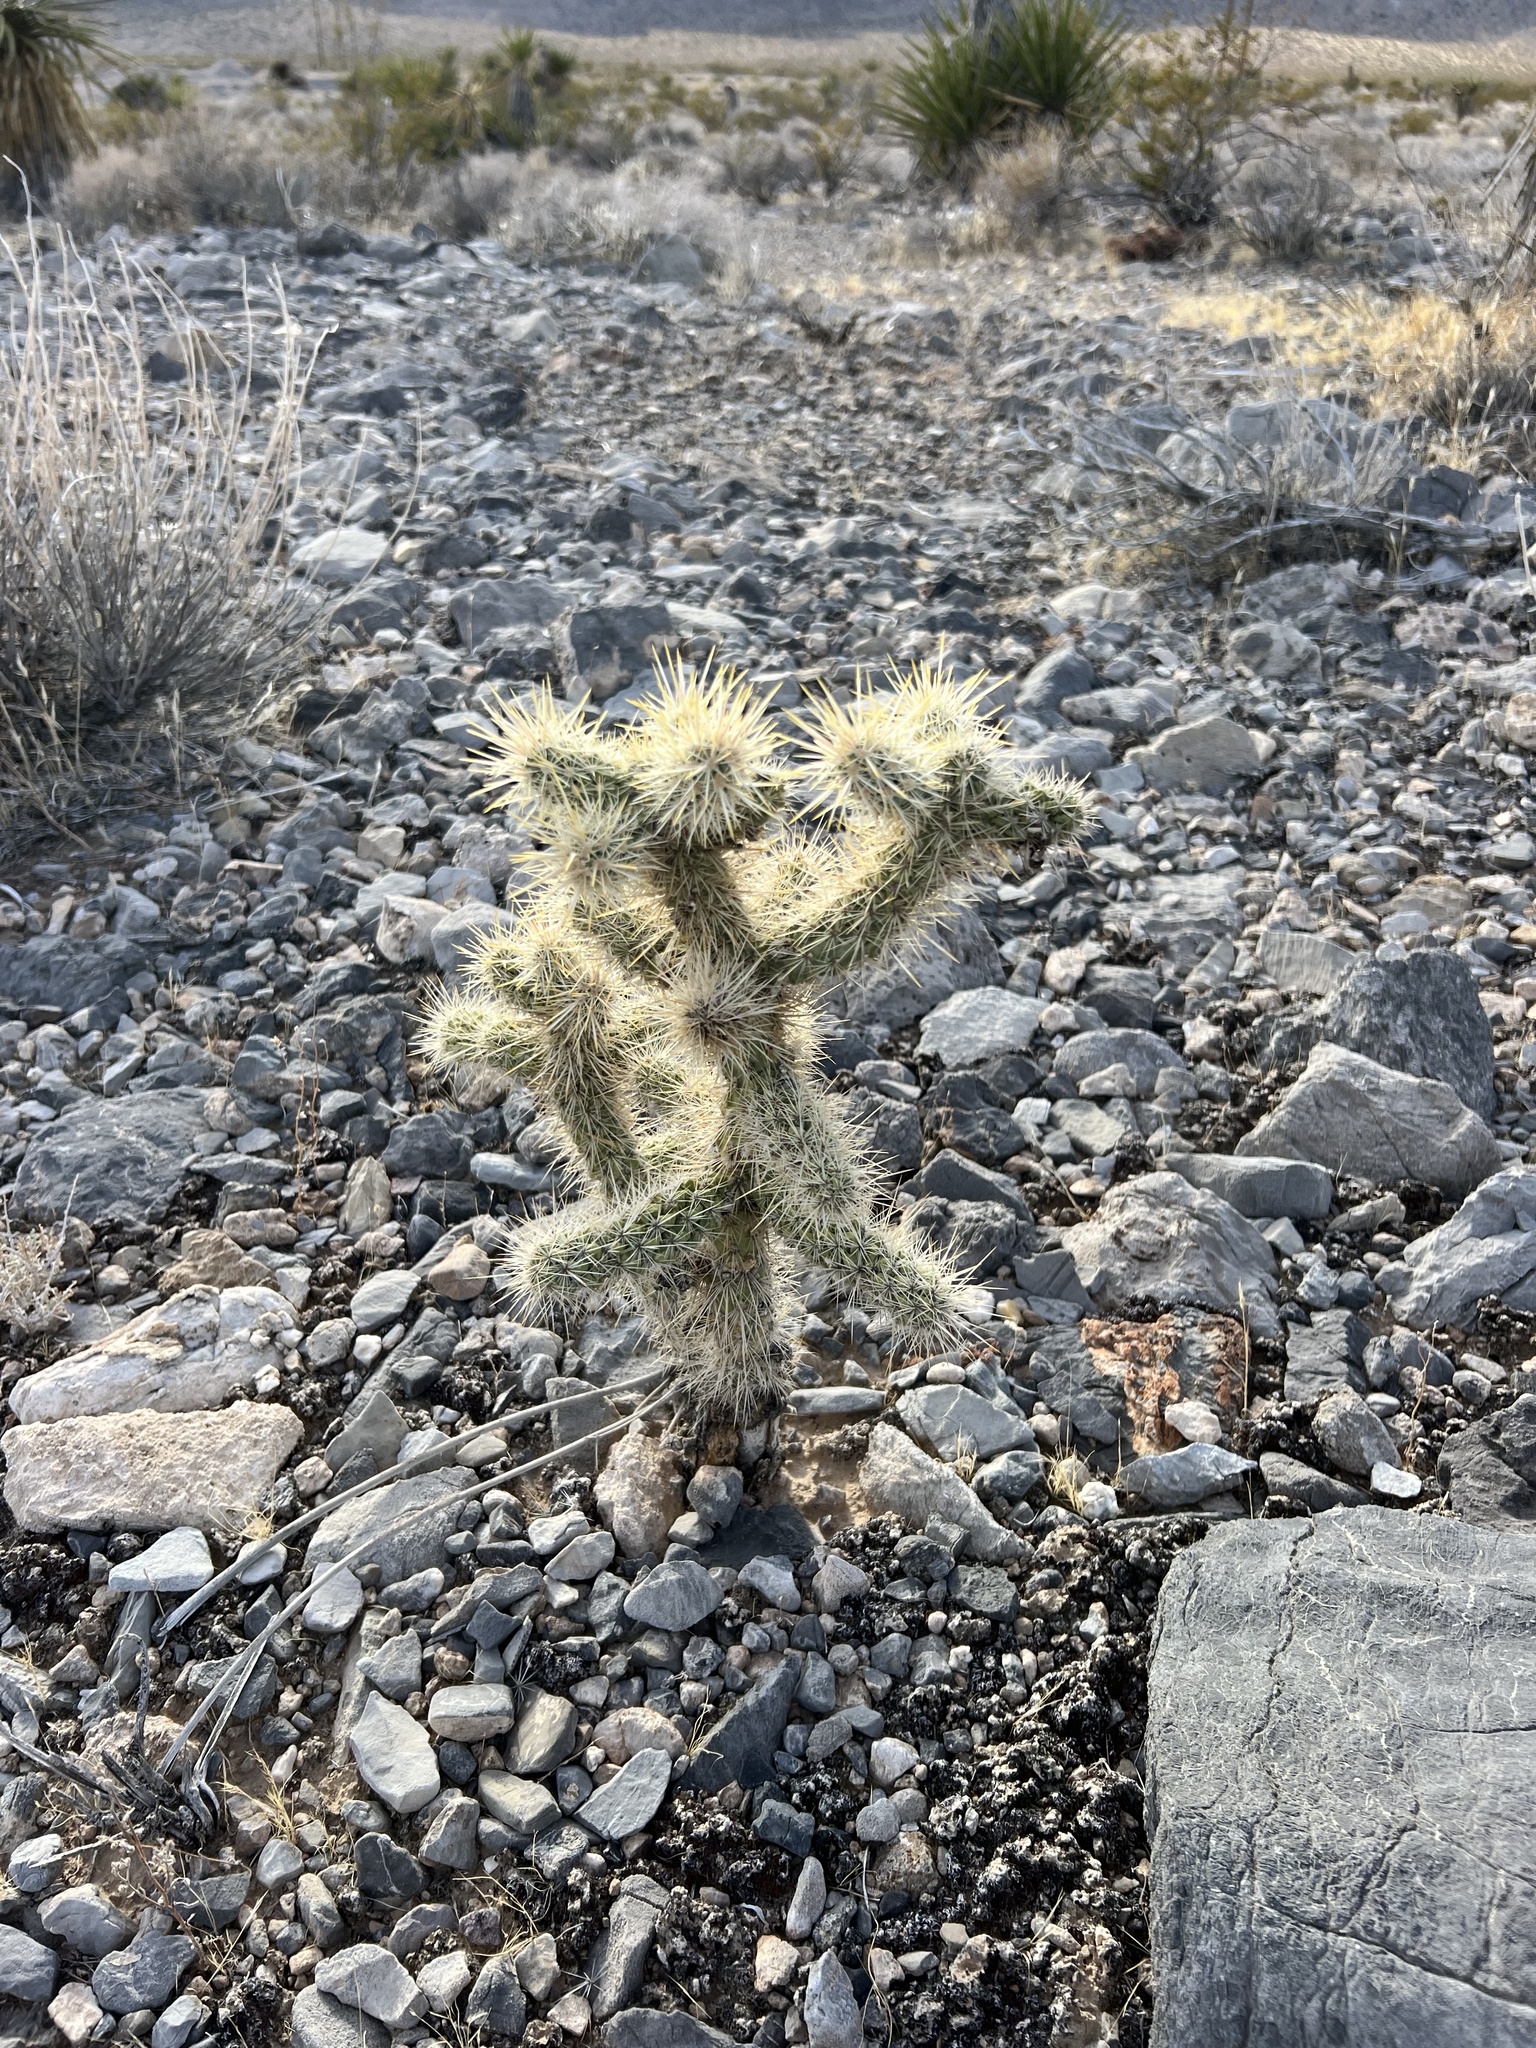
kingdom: Plantae
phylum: Tracheophyta
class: Magnoliopsida
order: Caryophyllales
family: Cactaceae
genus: Cylindropuntia
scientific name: Cylindropuntia echinocarpa
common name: Ground cholla
